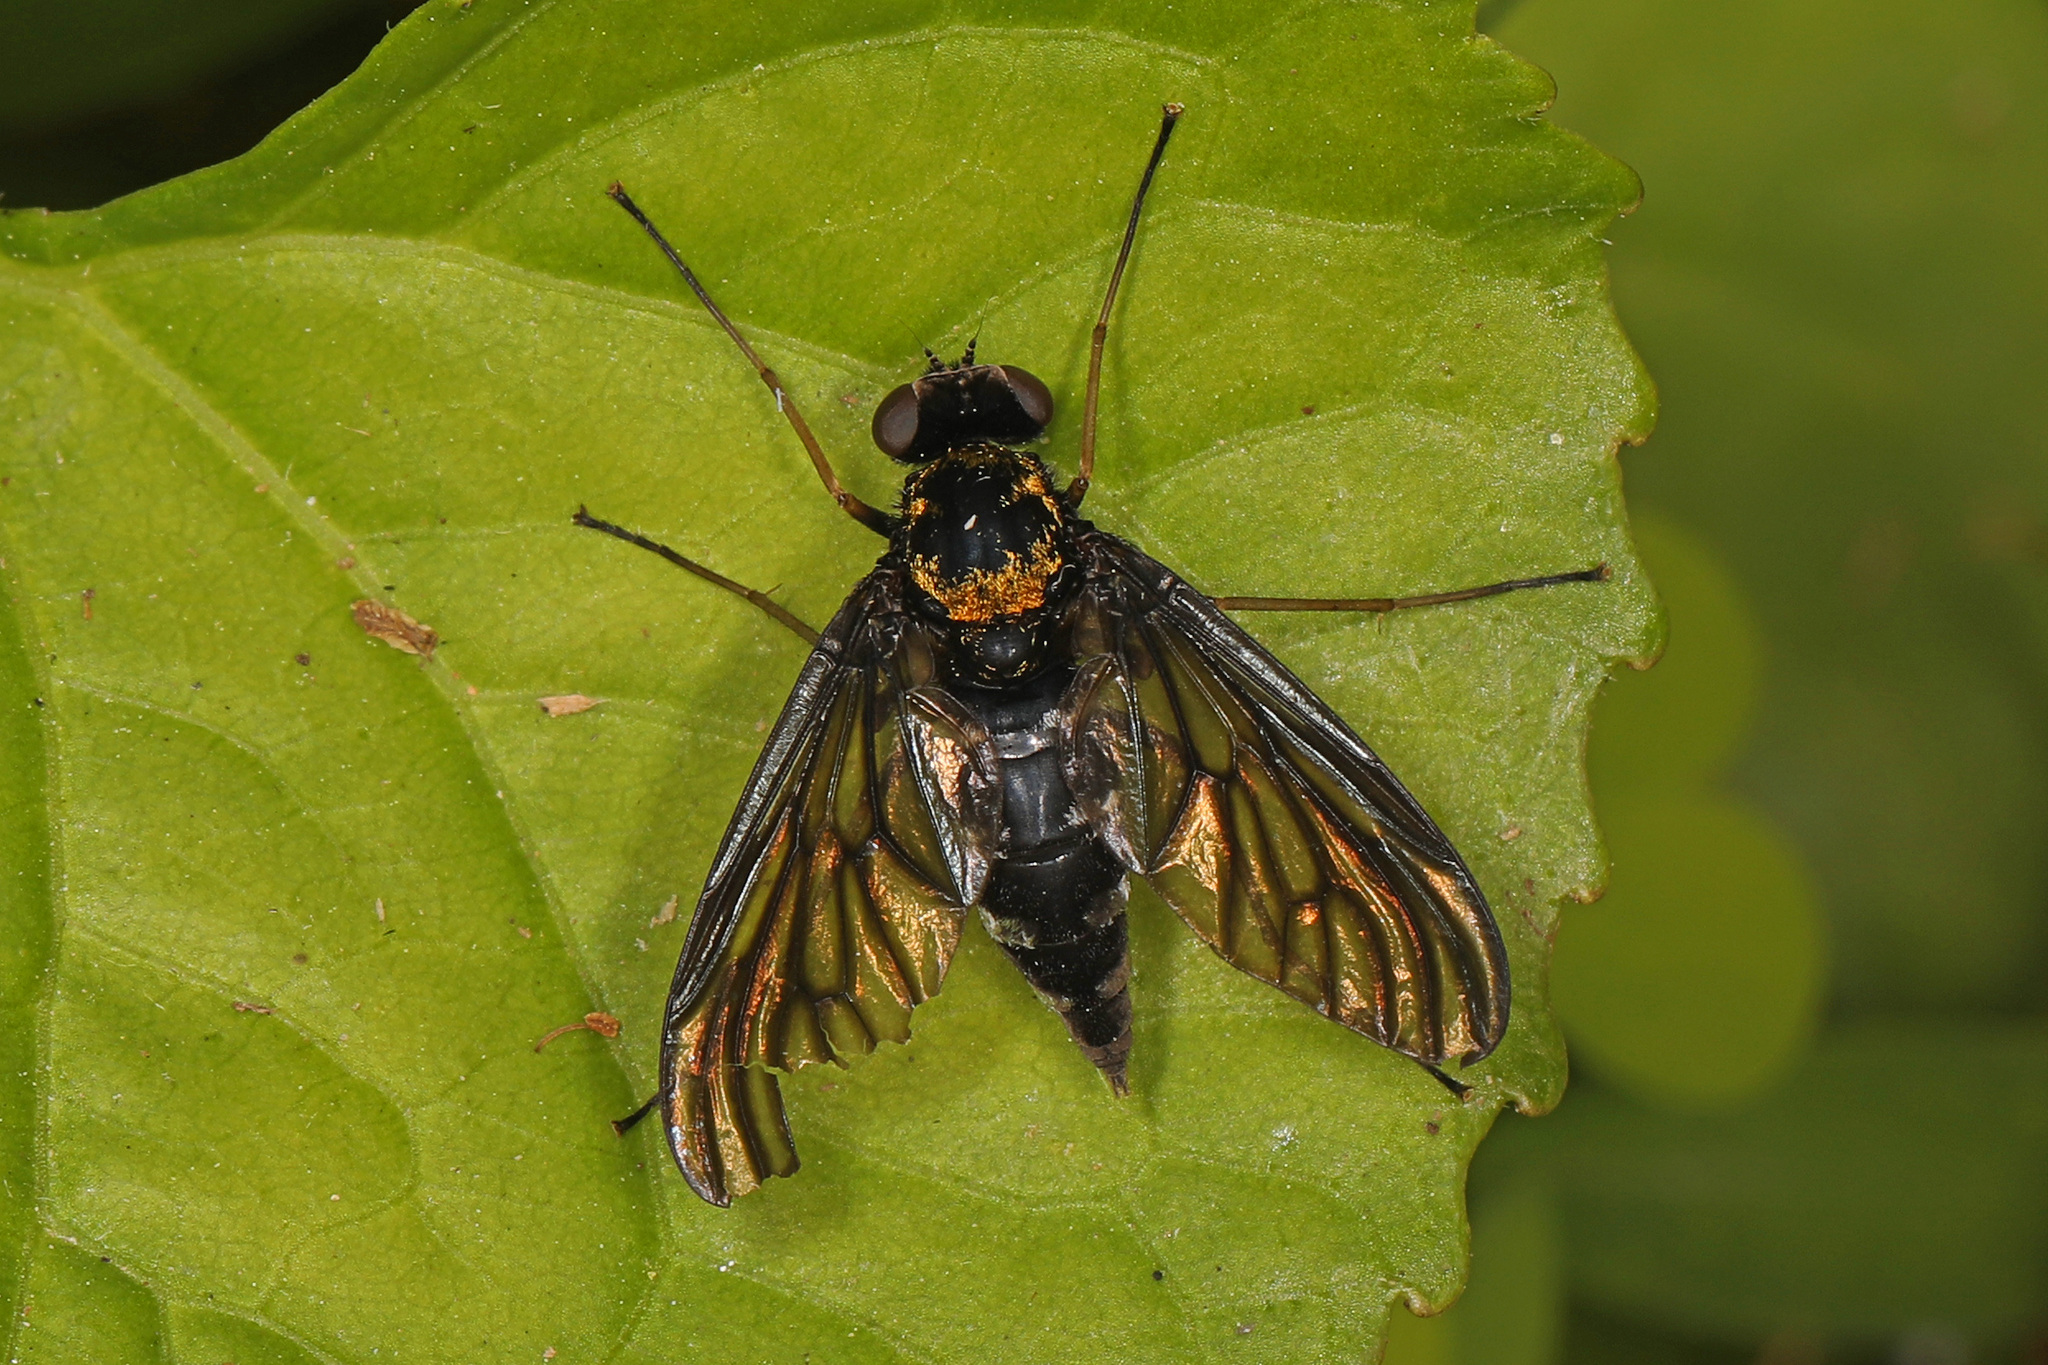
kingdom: Animalia
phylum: Arthropoda
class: Insecta
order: Diptera
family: Rhagionidae
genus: Chrysopilus
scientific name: Chrysopilus thoracicus
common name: Golden-backed snipe fly
